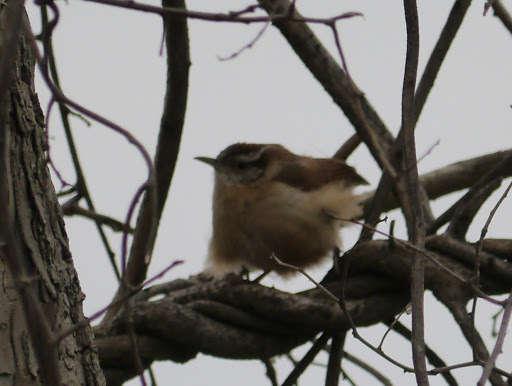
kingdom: Animalia
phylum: Chordata
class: Aves
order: Passeriformes
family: Troglodytidae
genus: Thryothorus
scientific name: Thryothorus ludovicianus
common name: Carolina wren
